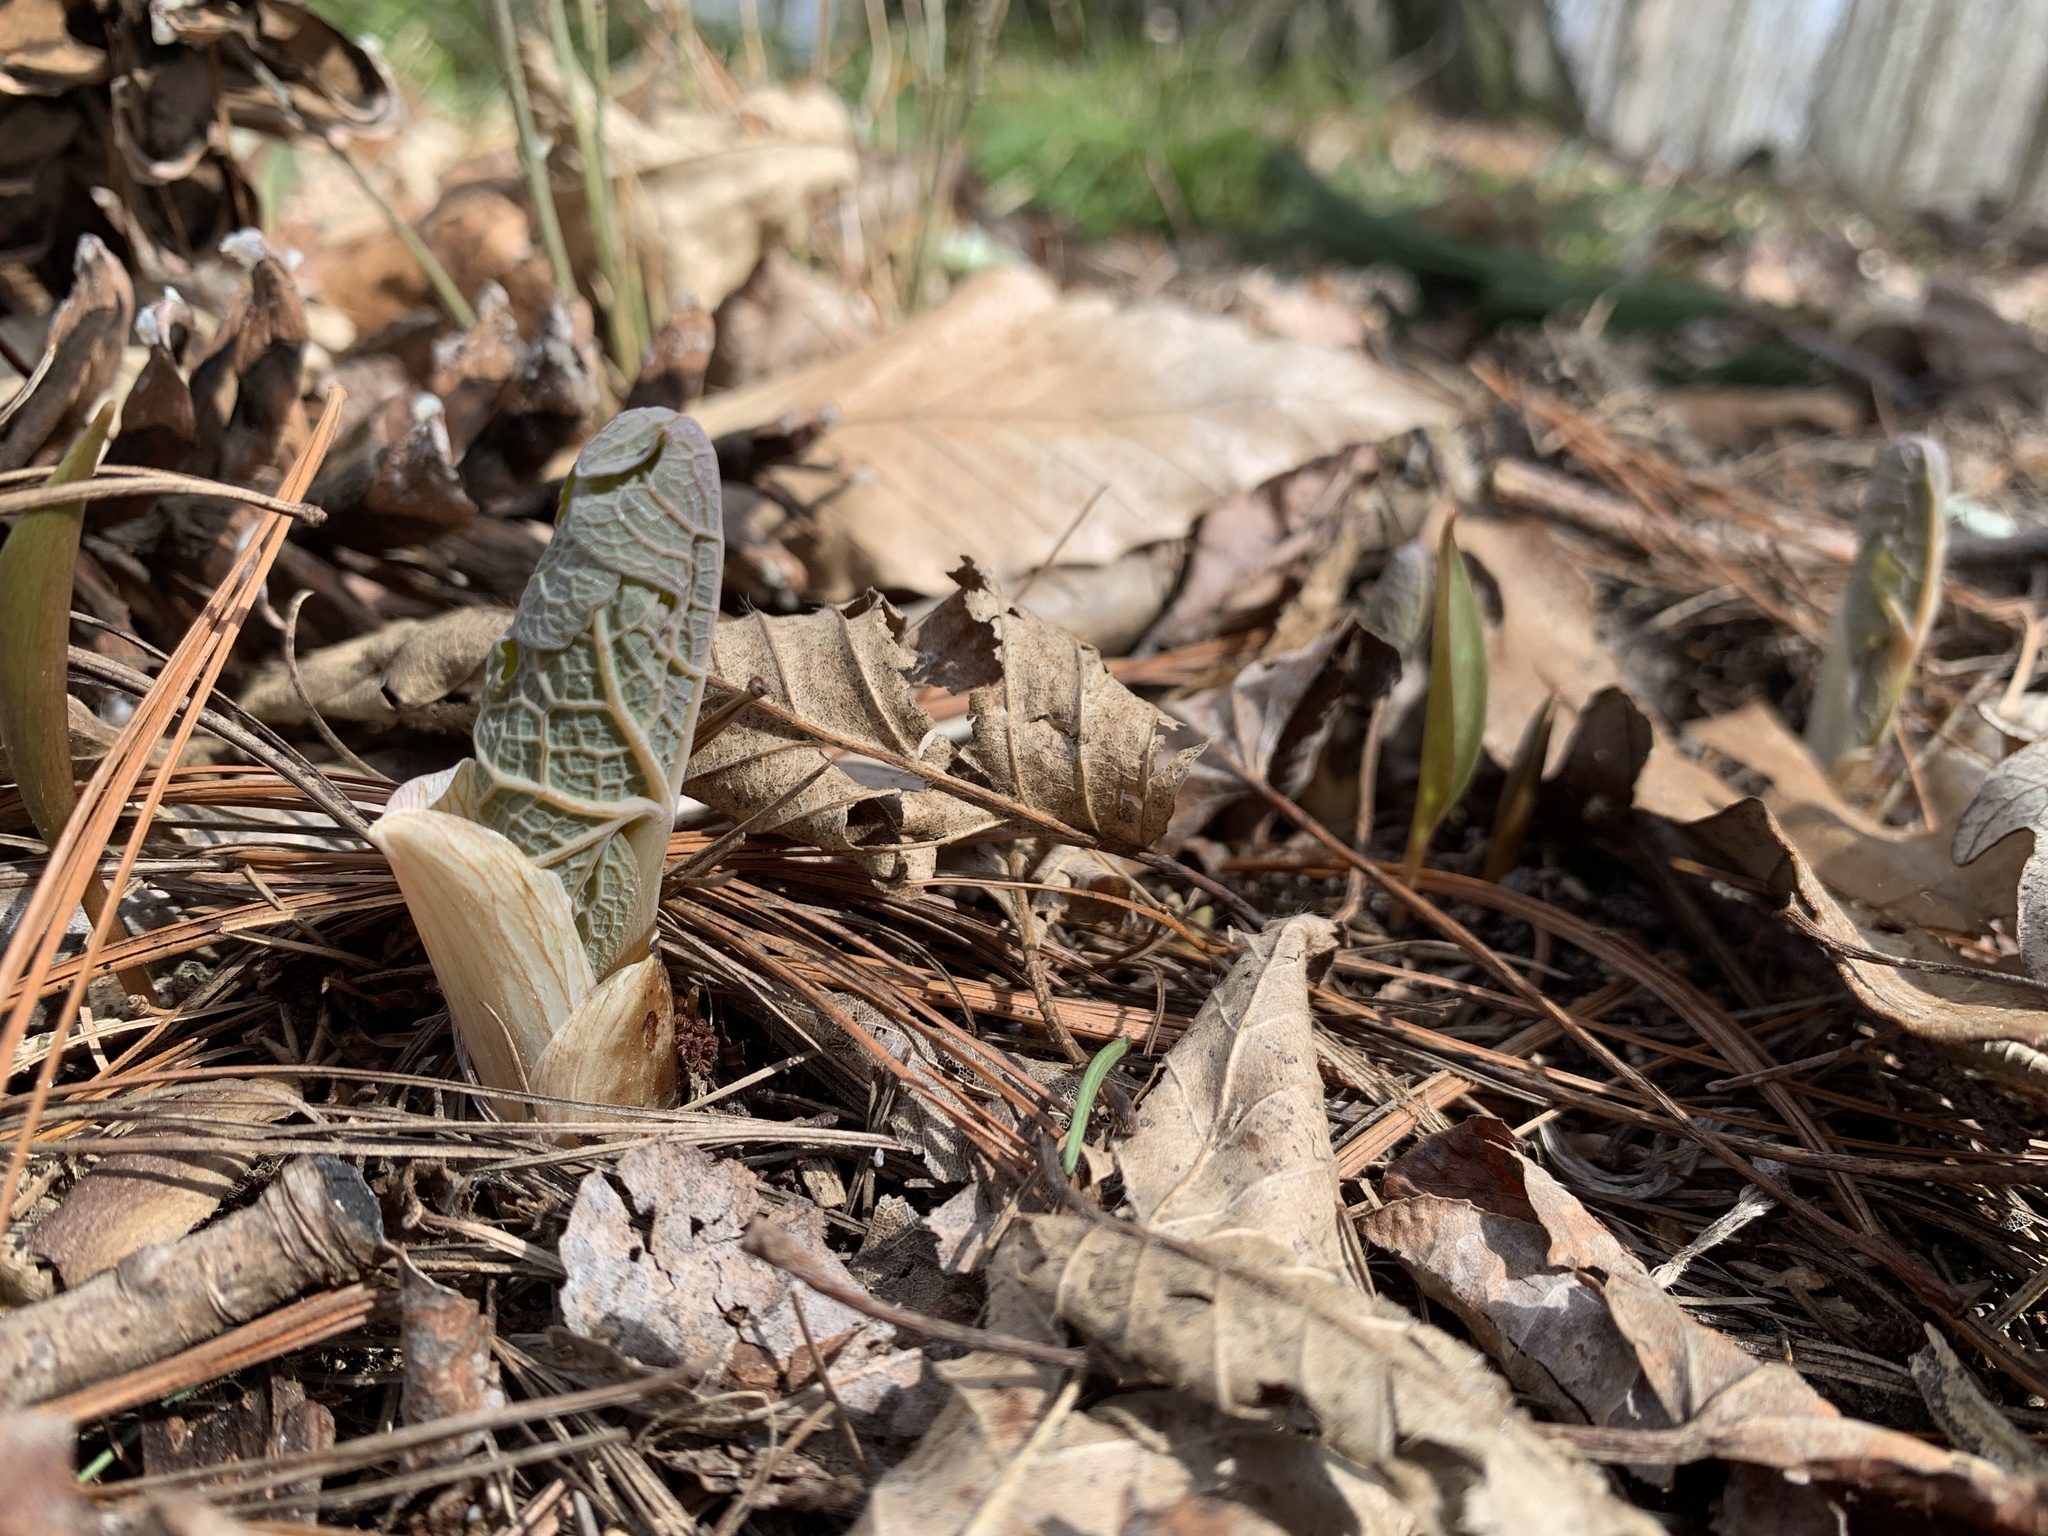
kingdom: Plantae
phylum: Tracheophyta
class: Magnoliopsida
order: Ranunculales
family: Papaveraceae
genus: Sanguinaria
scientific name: Sanguinaria canadensis
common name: Bloodroot
